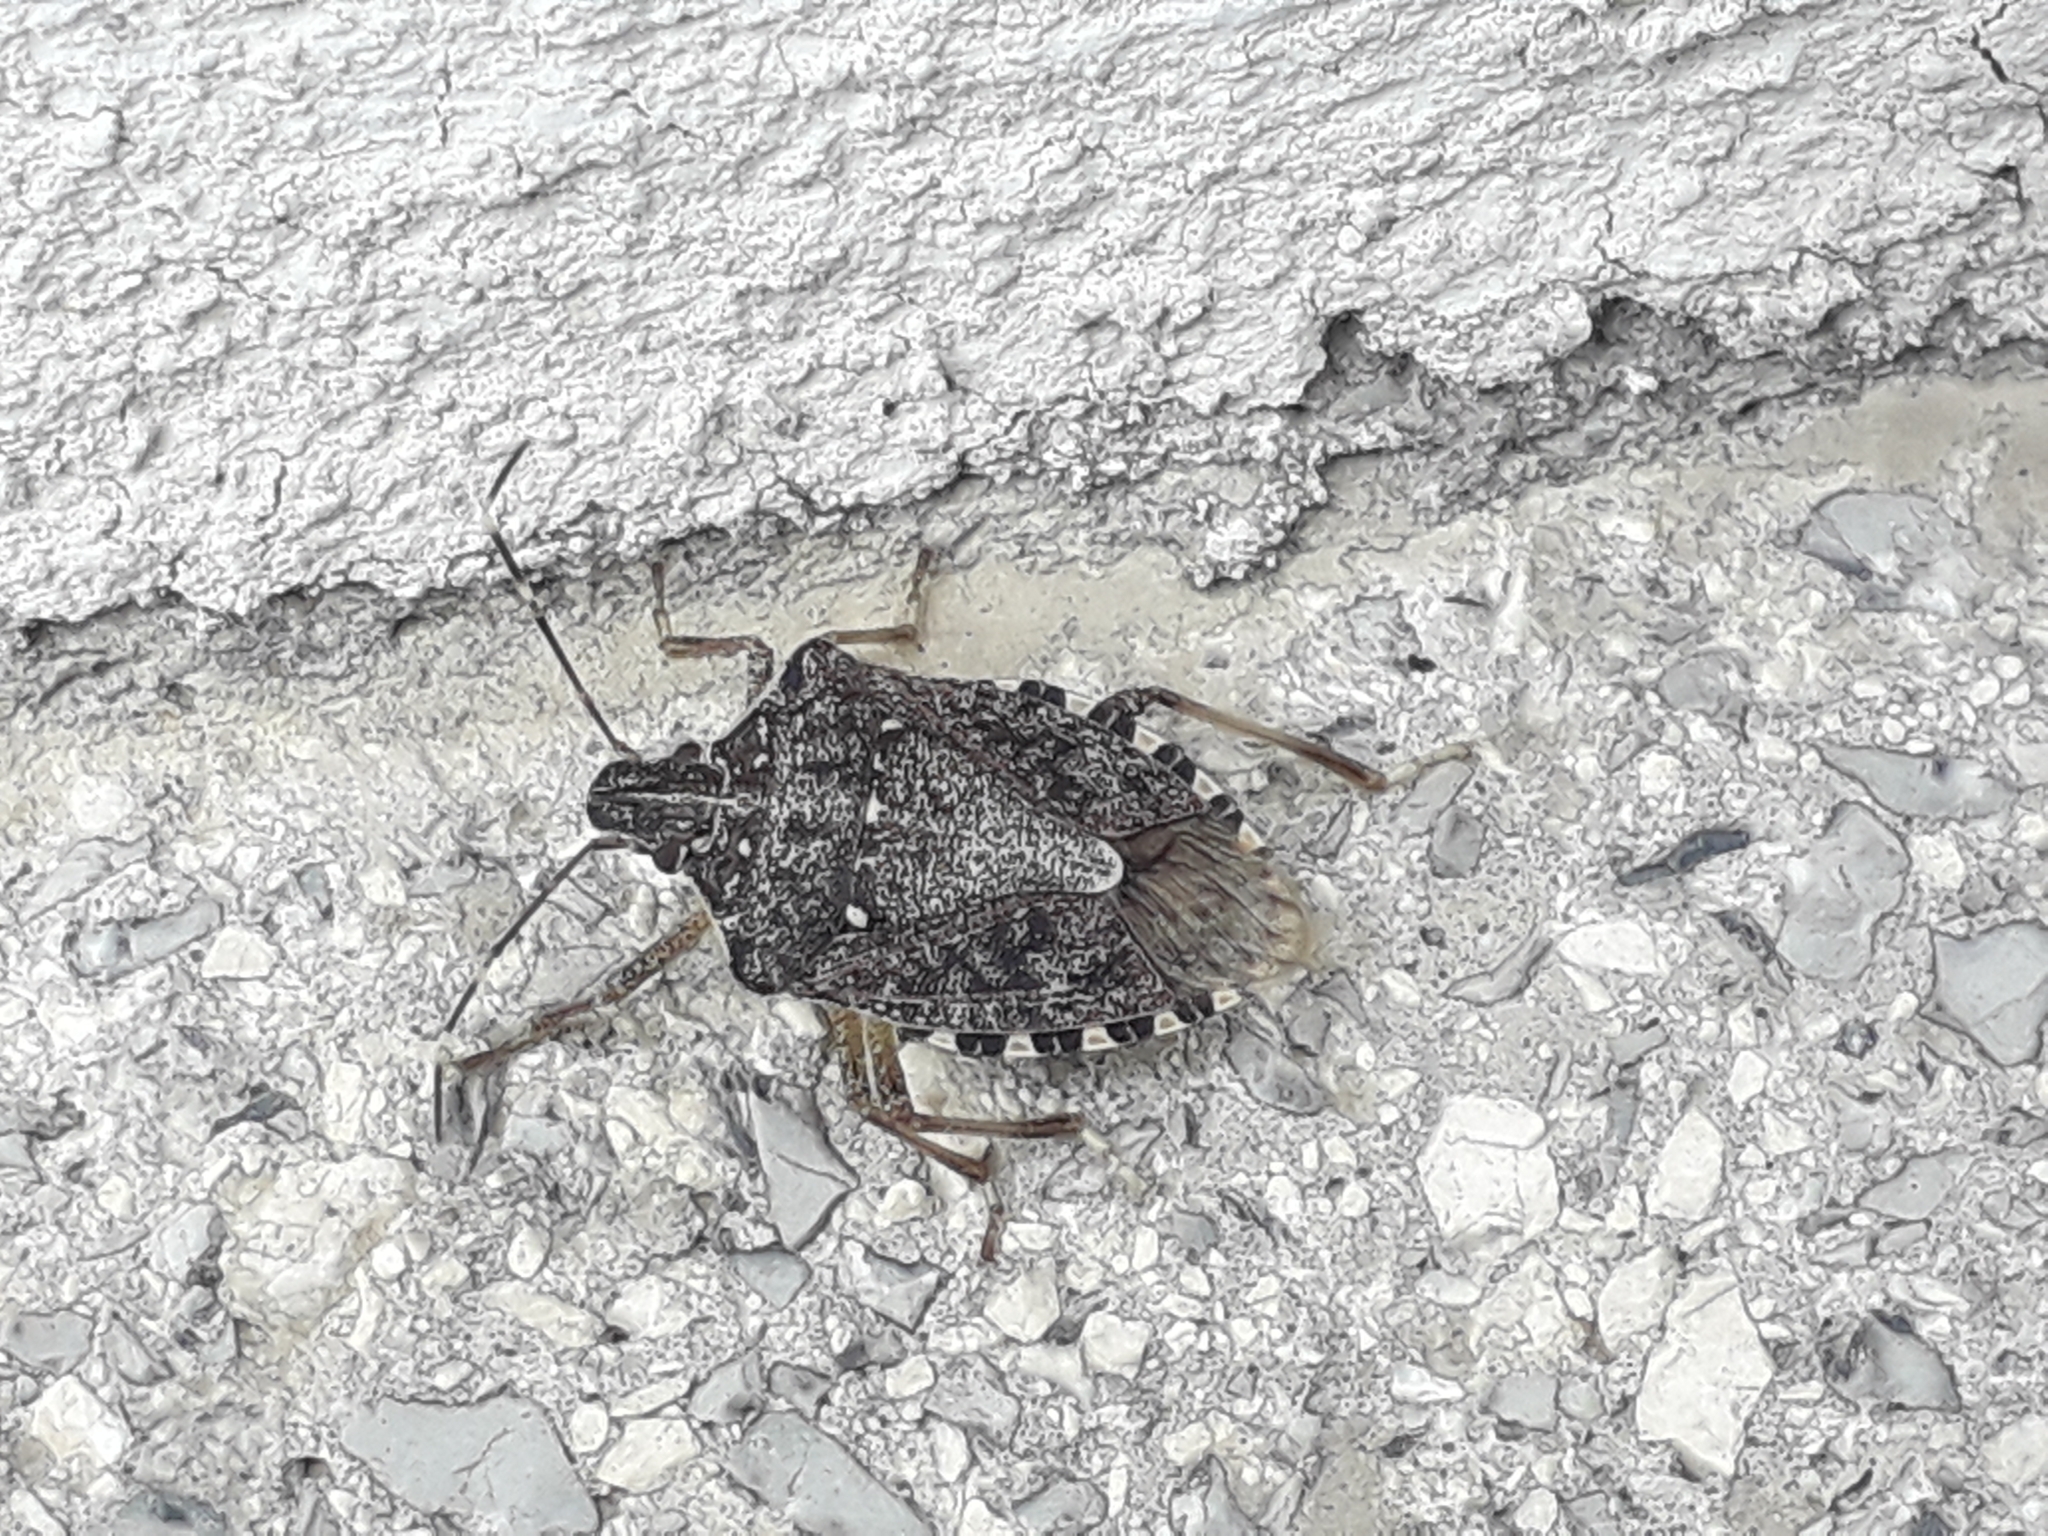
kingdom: Animalia
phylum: Arthropoda
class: Insecta
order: Hemiptera
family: Pentatomidae
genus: Halyomorpha
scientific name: Halyomorpha halys
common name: Brown marmorated stink bug
